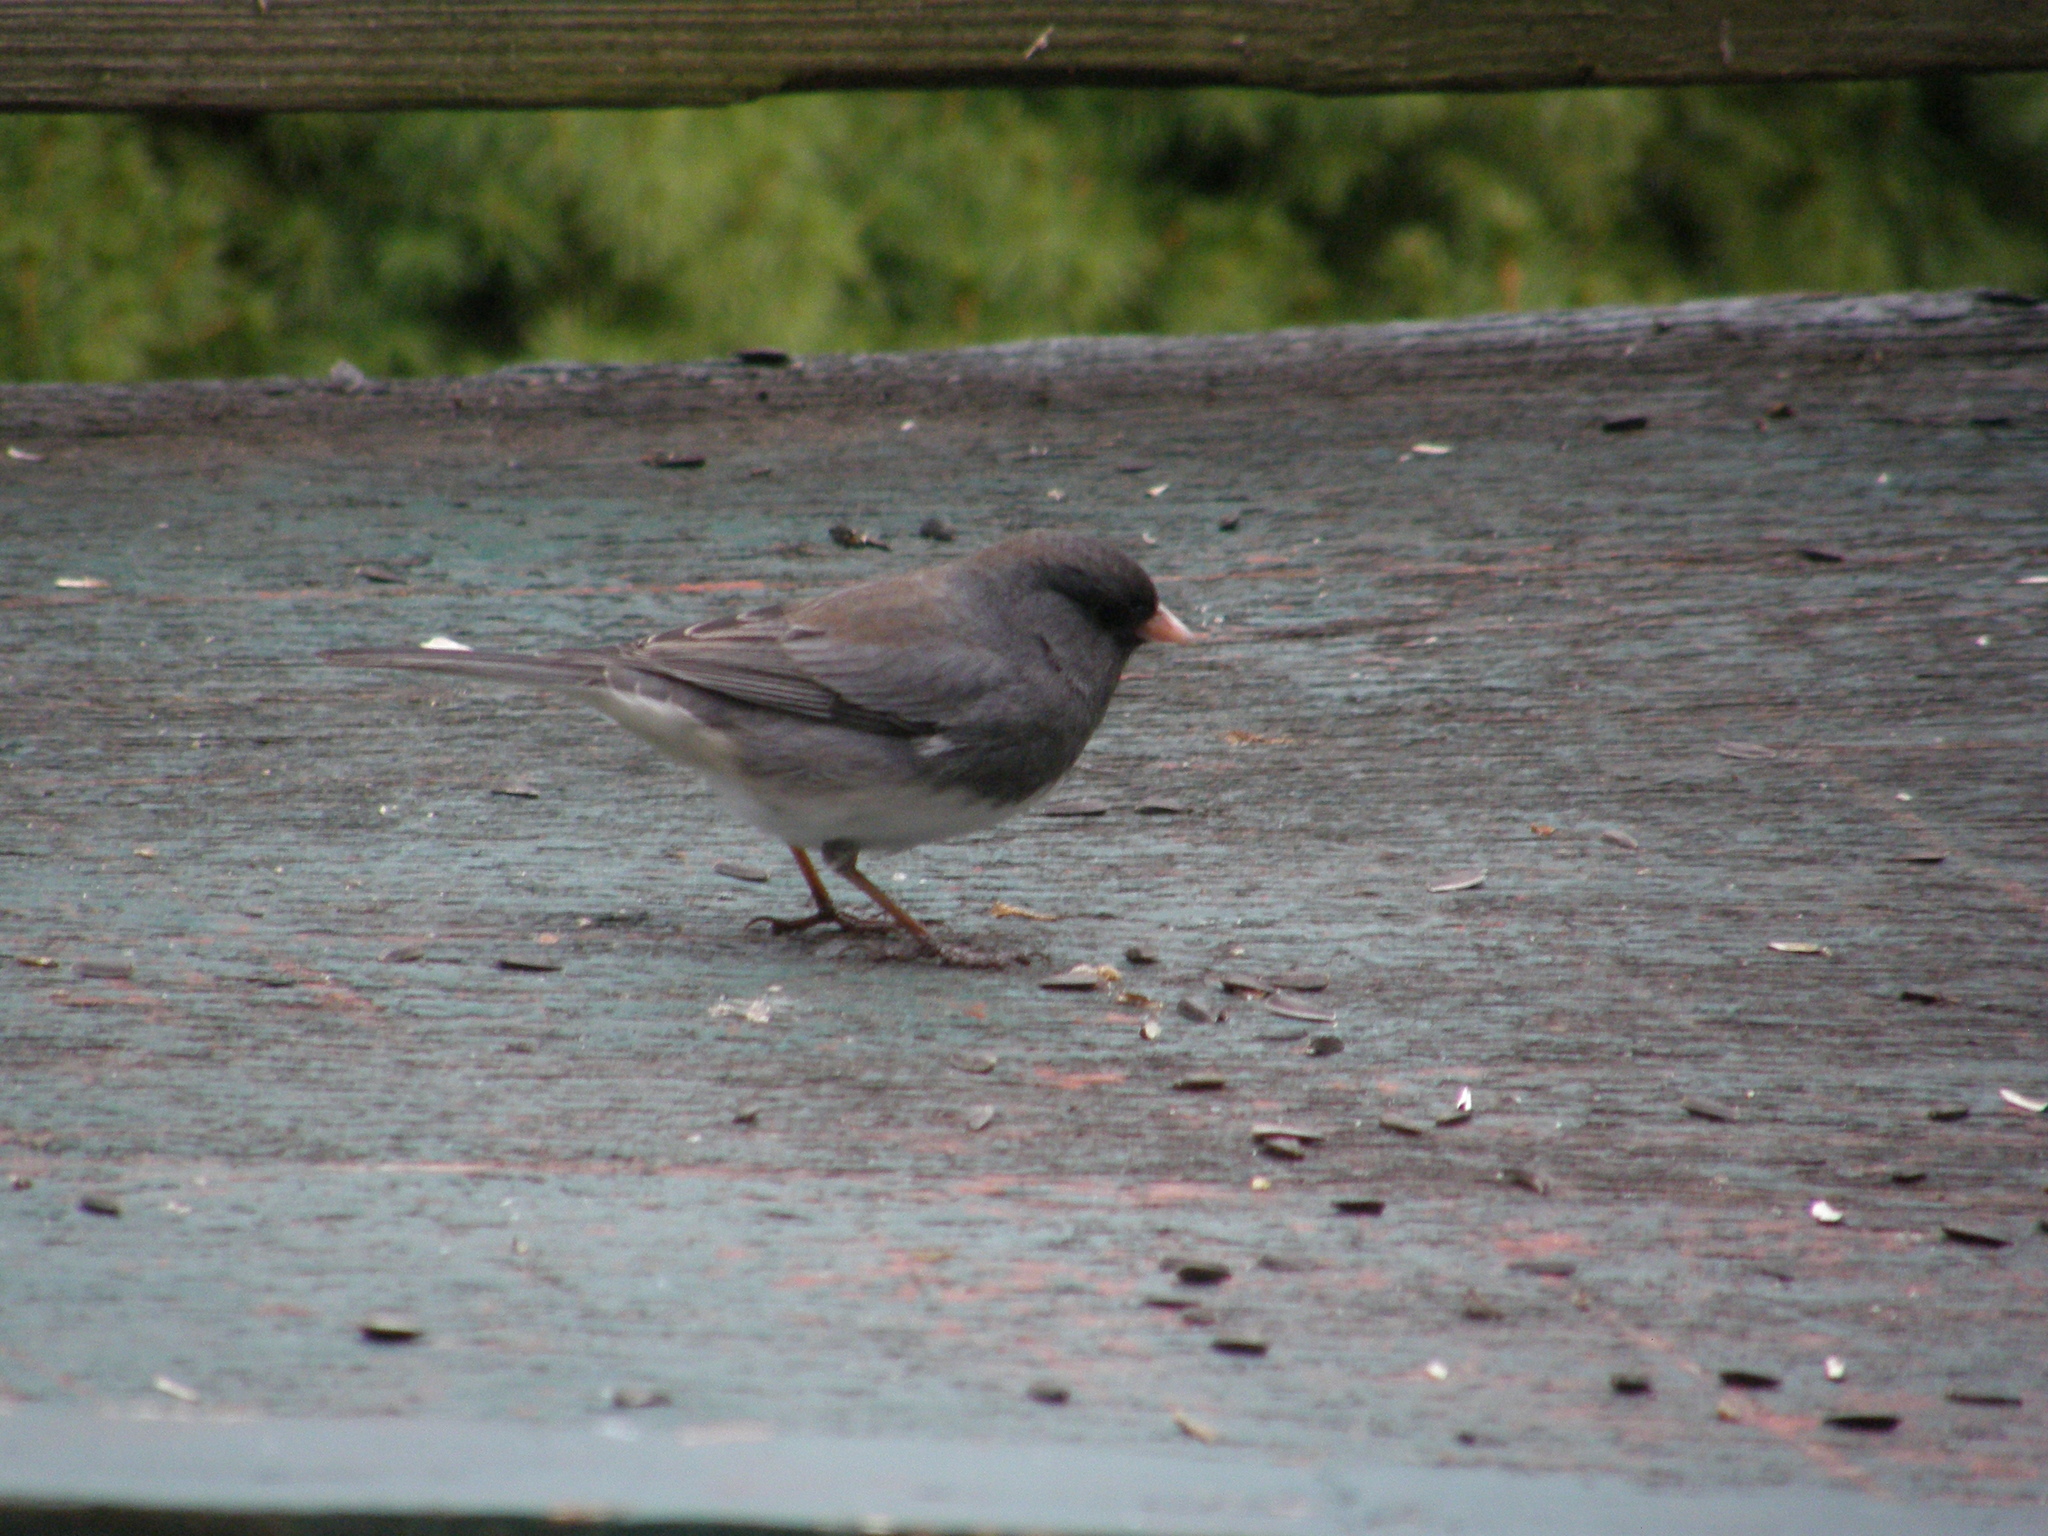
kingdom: Animalia
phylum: Chordata
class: Aves
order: Passeriformes
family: Passerellidae
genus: Junco
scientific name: Junco hyemalis
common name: Dark-eyed junco
